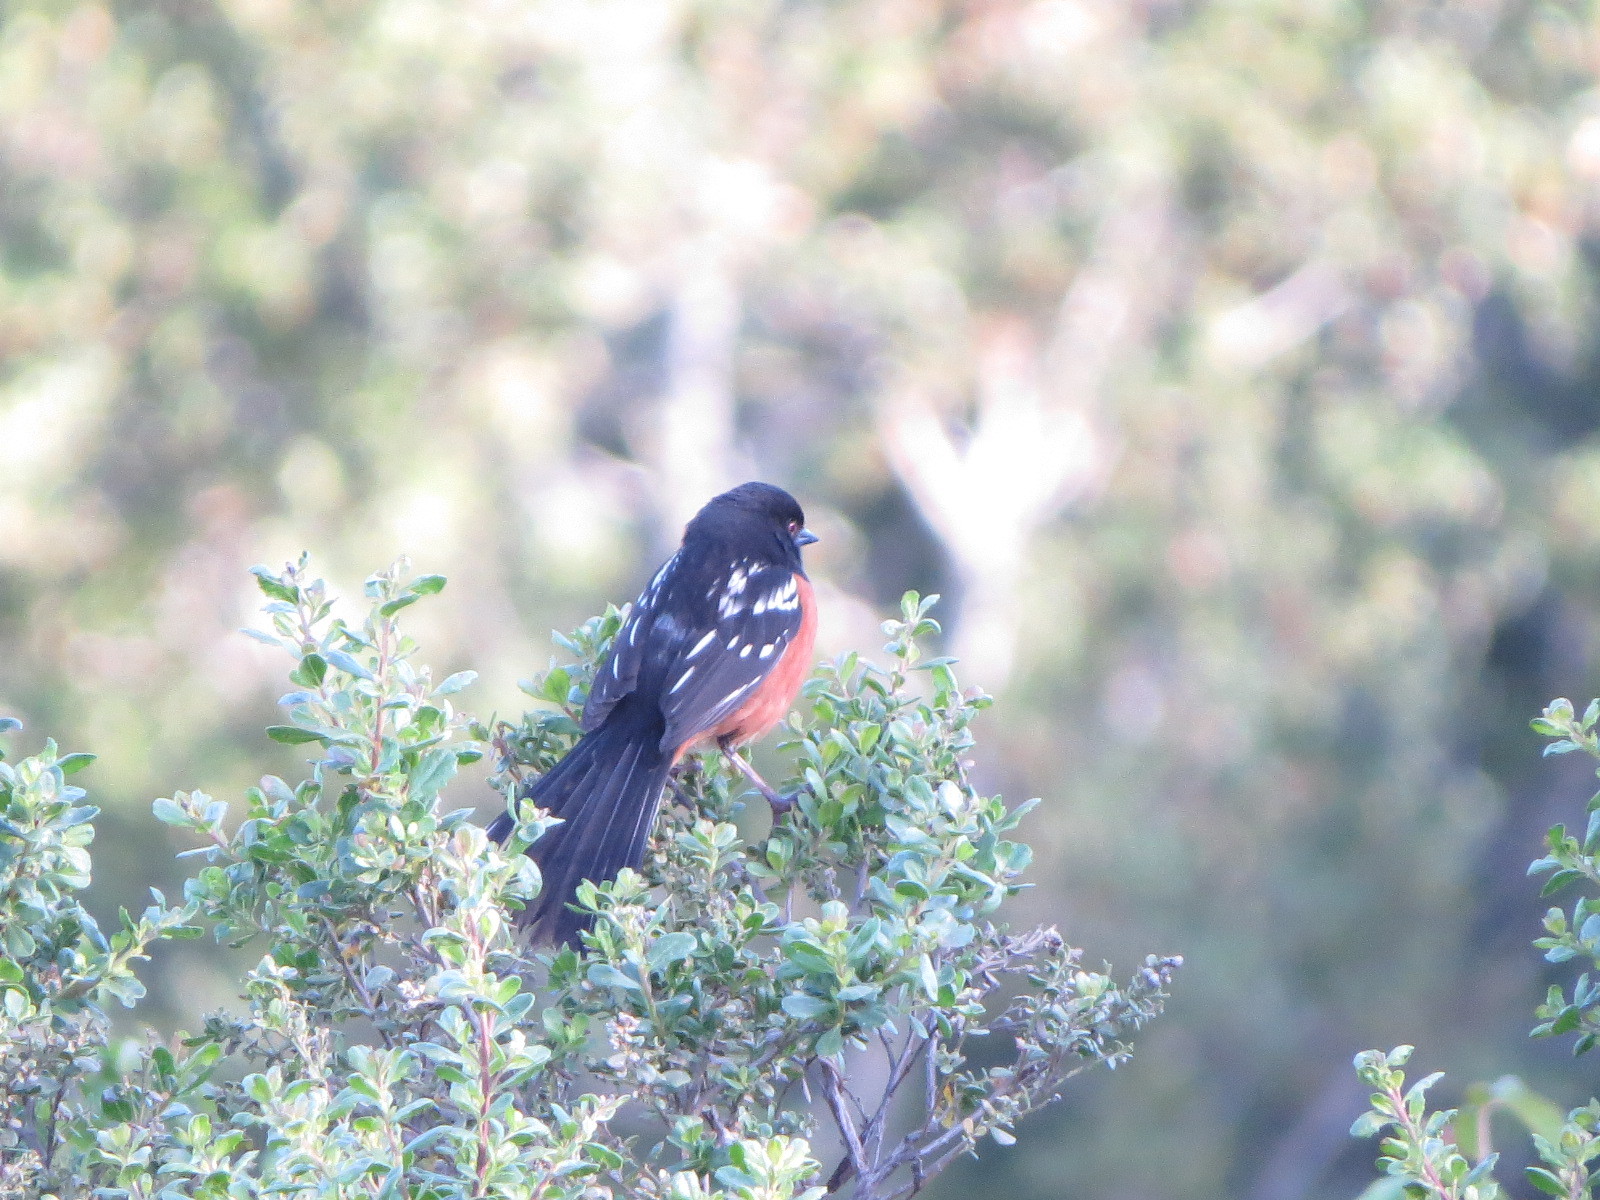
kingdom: Animalia
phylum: Chordata
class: Aves
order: Passeriformes
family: Passerellidae
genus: Pipilo
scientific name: Pipilo maculatus
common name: Spotted towhee
